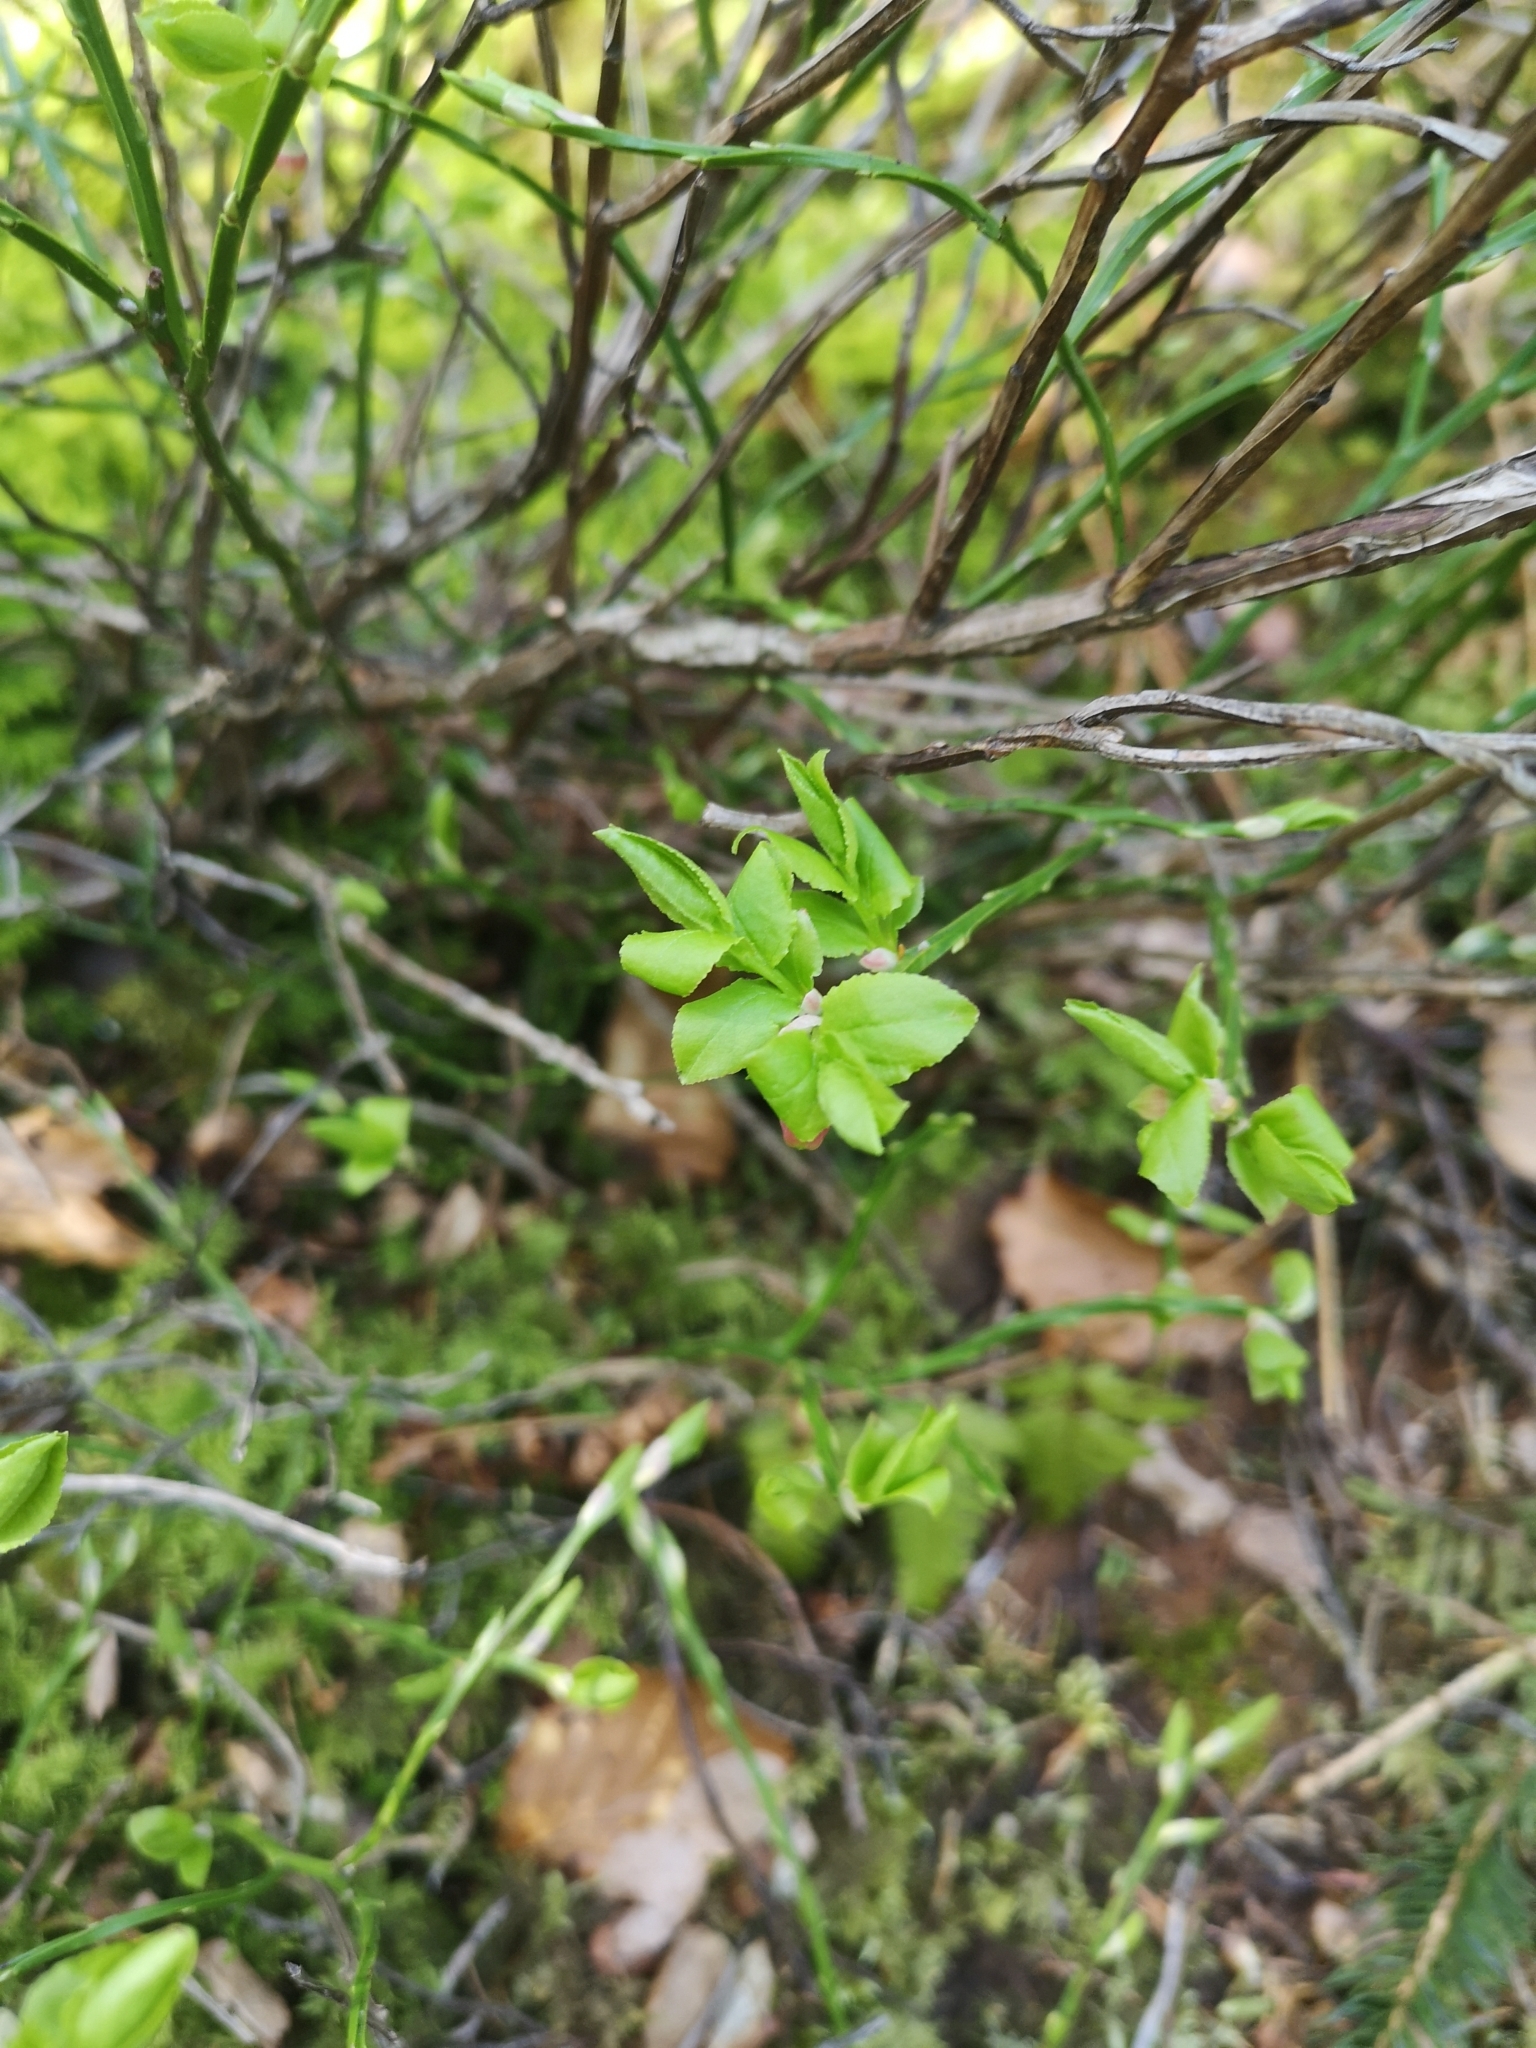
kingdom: Plantae
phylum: Tracheophyta
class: Magnoliopsida
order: Ericales
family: Ericaceae
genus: Vaccinium
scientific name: Vaccinium myrtillus
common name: Bilberry
